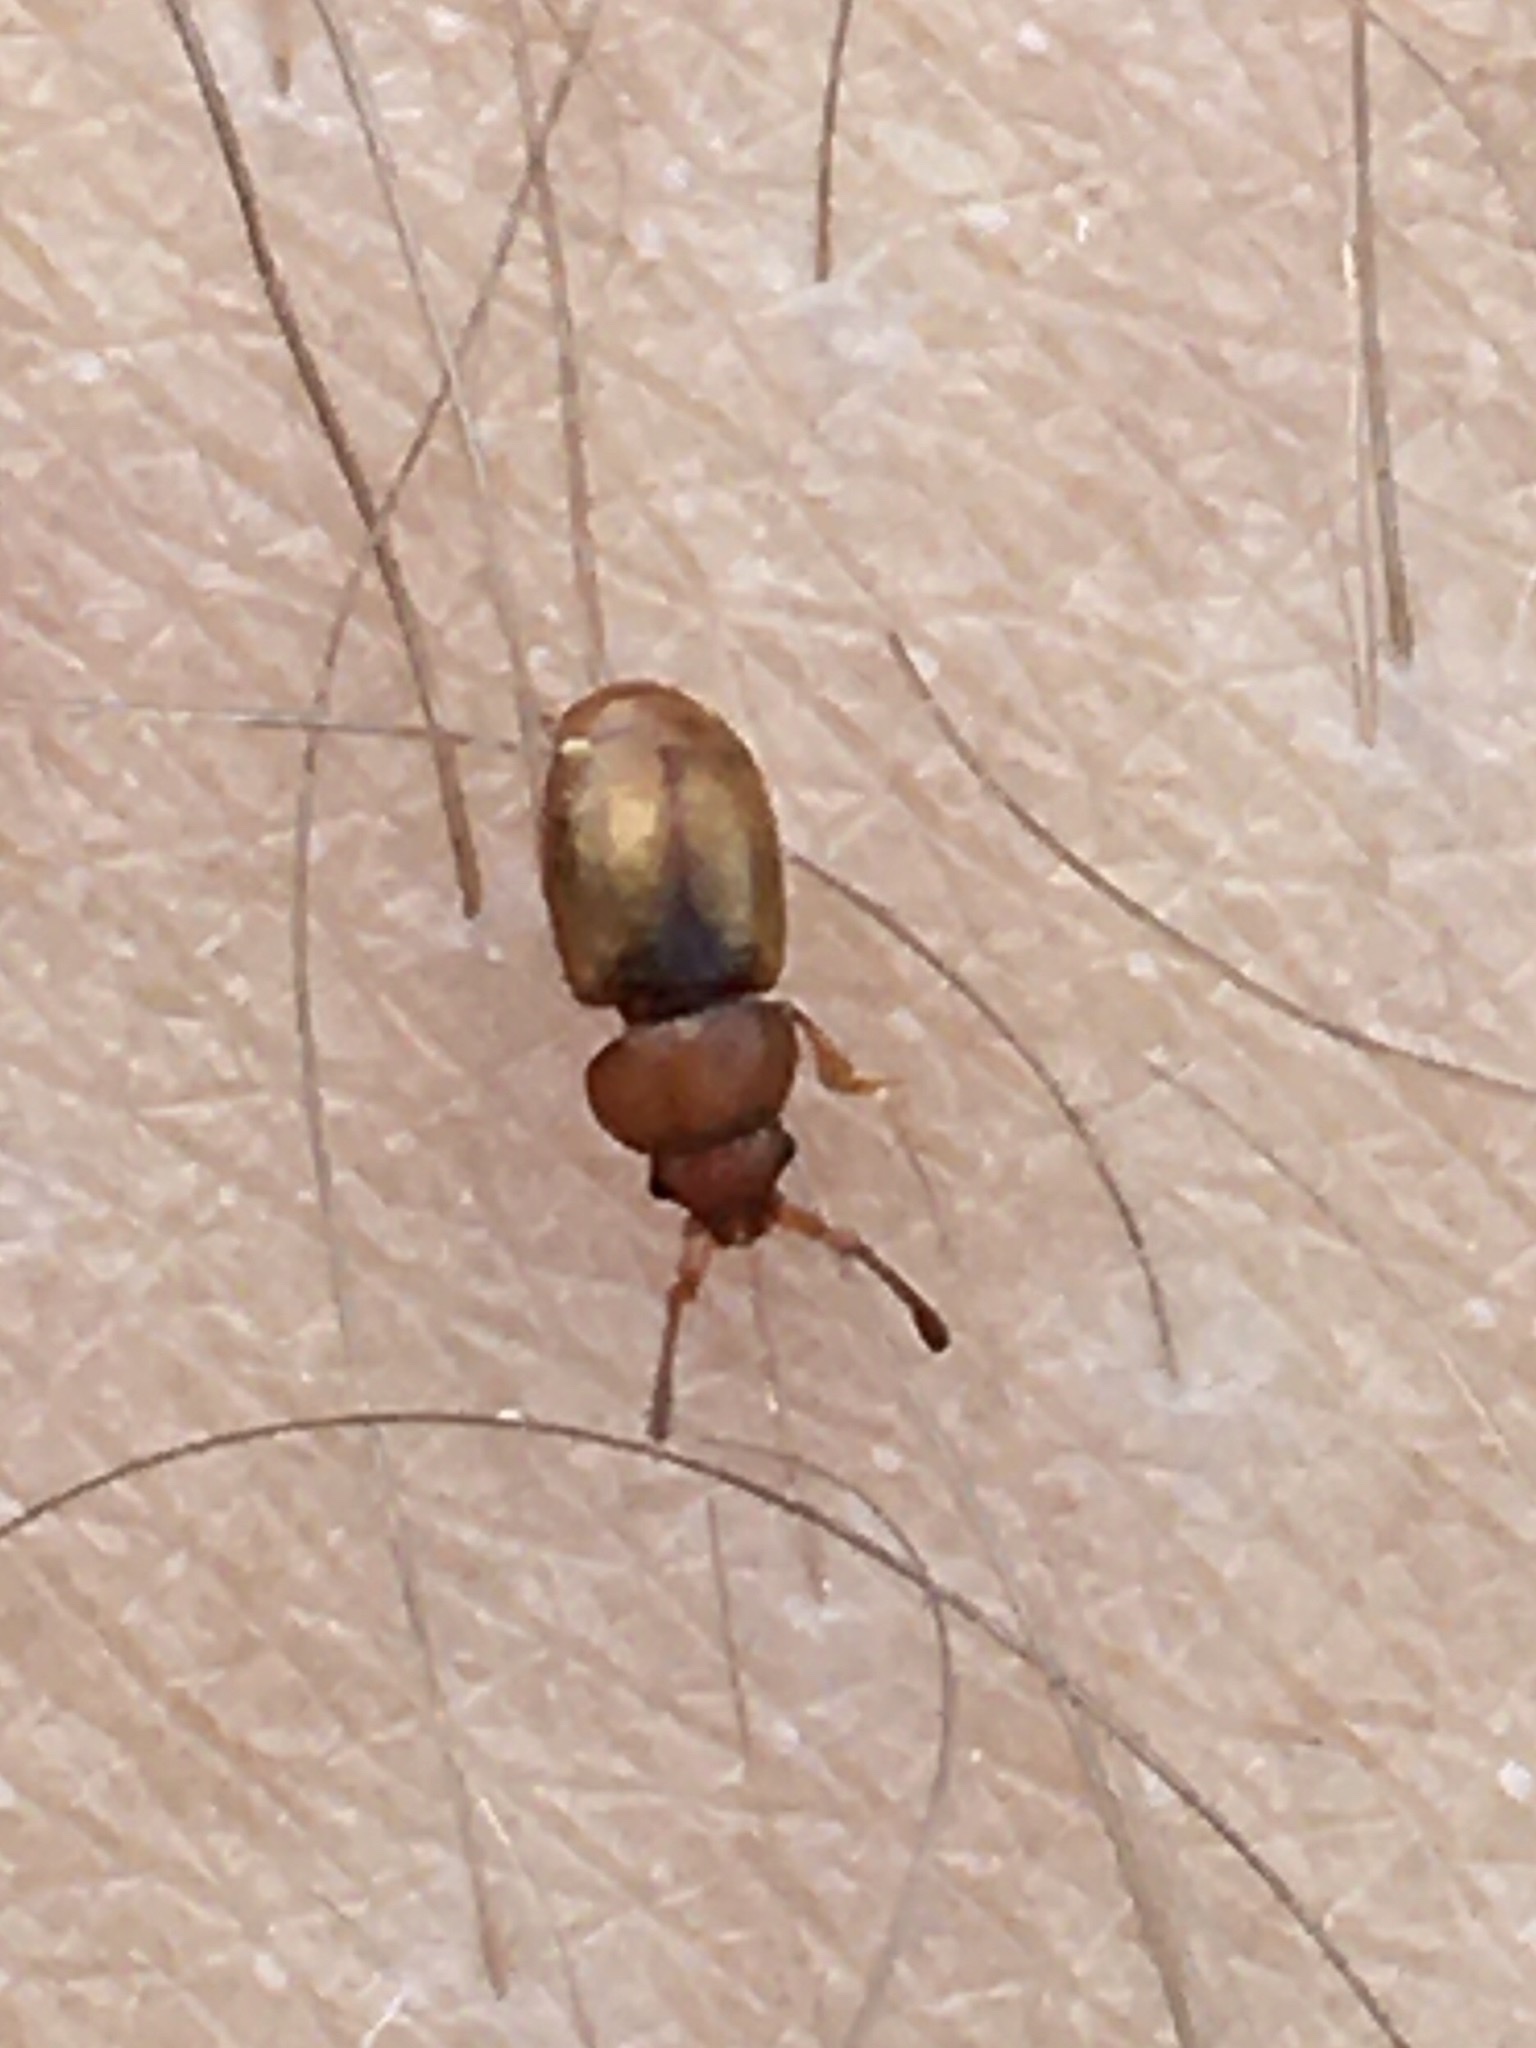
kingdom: Animalia
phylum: Arthropoda
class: Insecta
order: Coleoptera
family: Kateretidae
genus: Kateretes
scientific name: Kateretes
